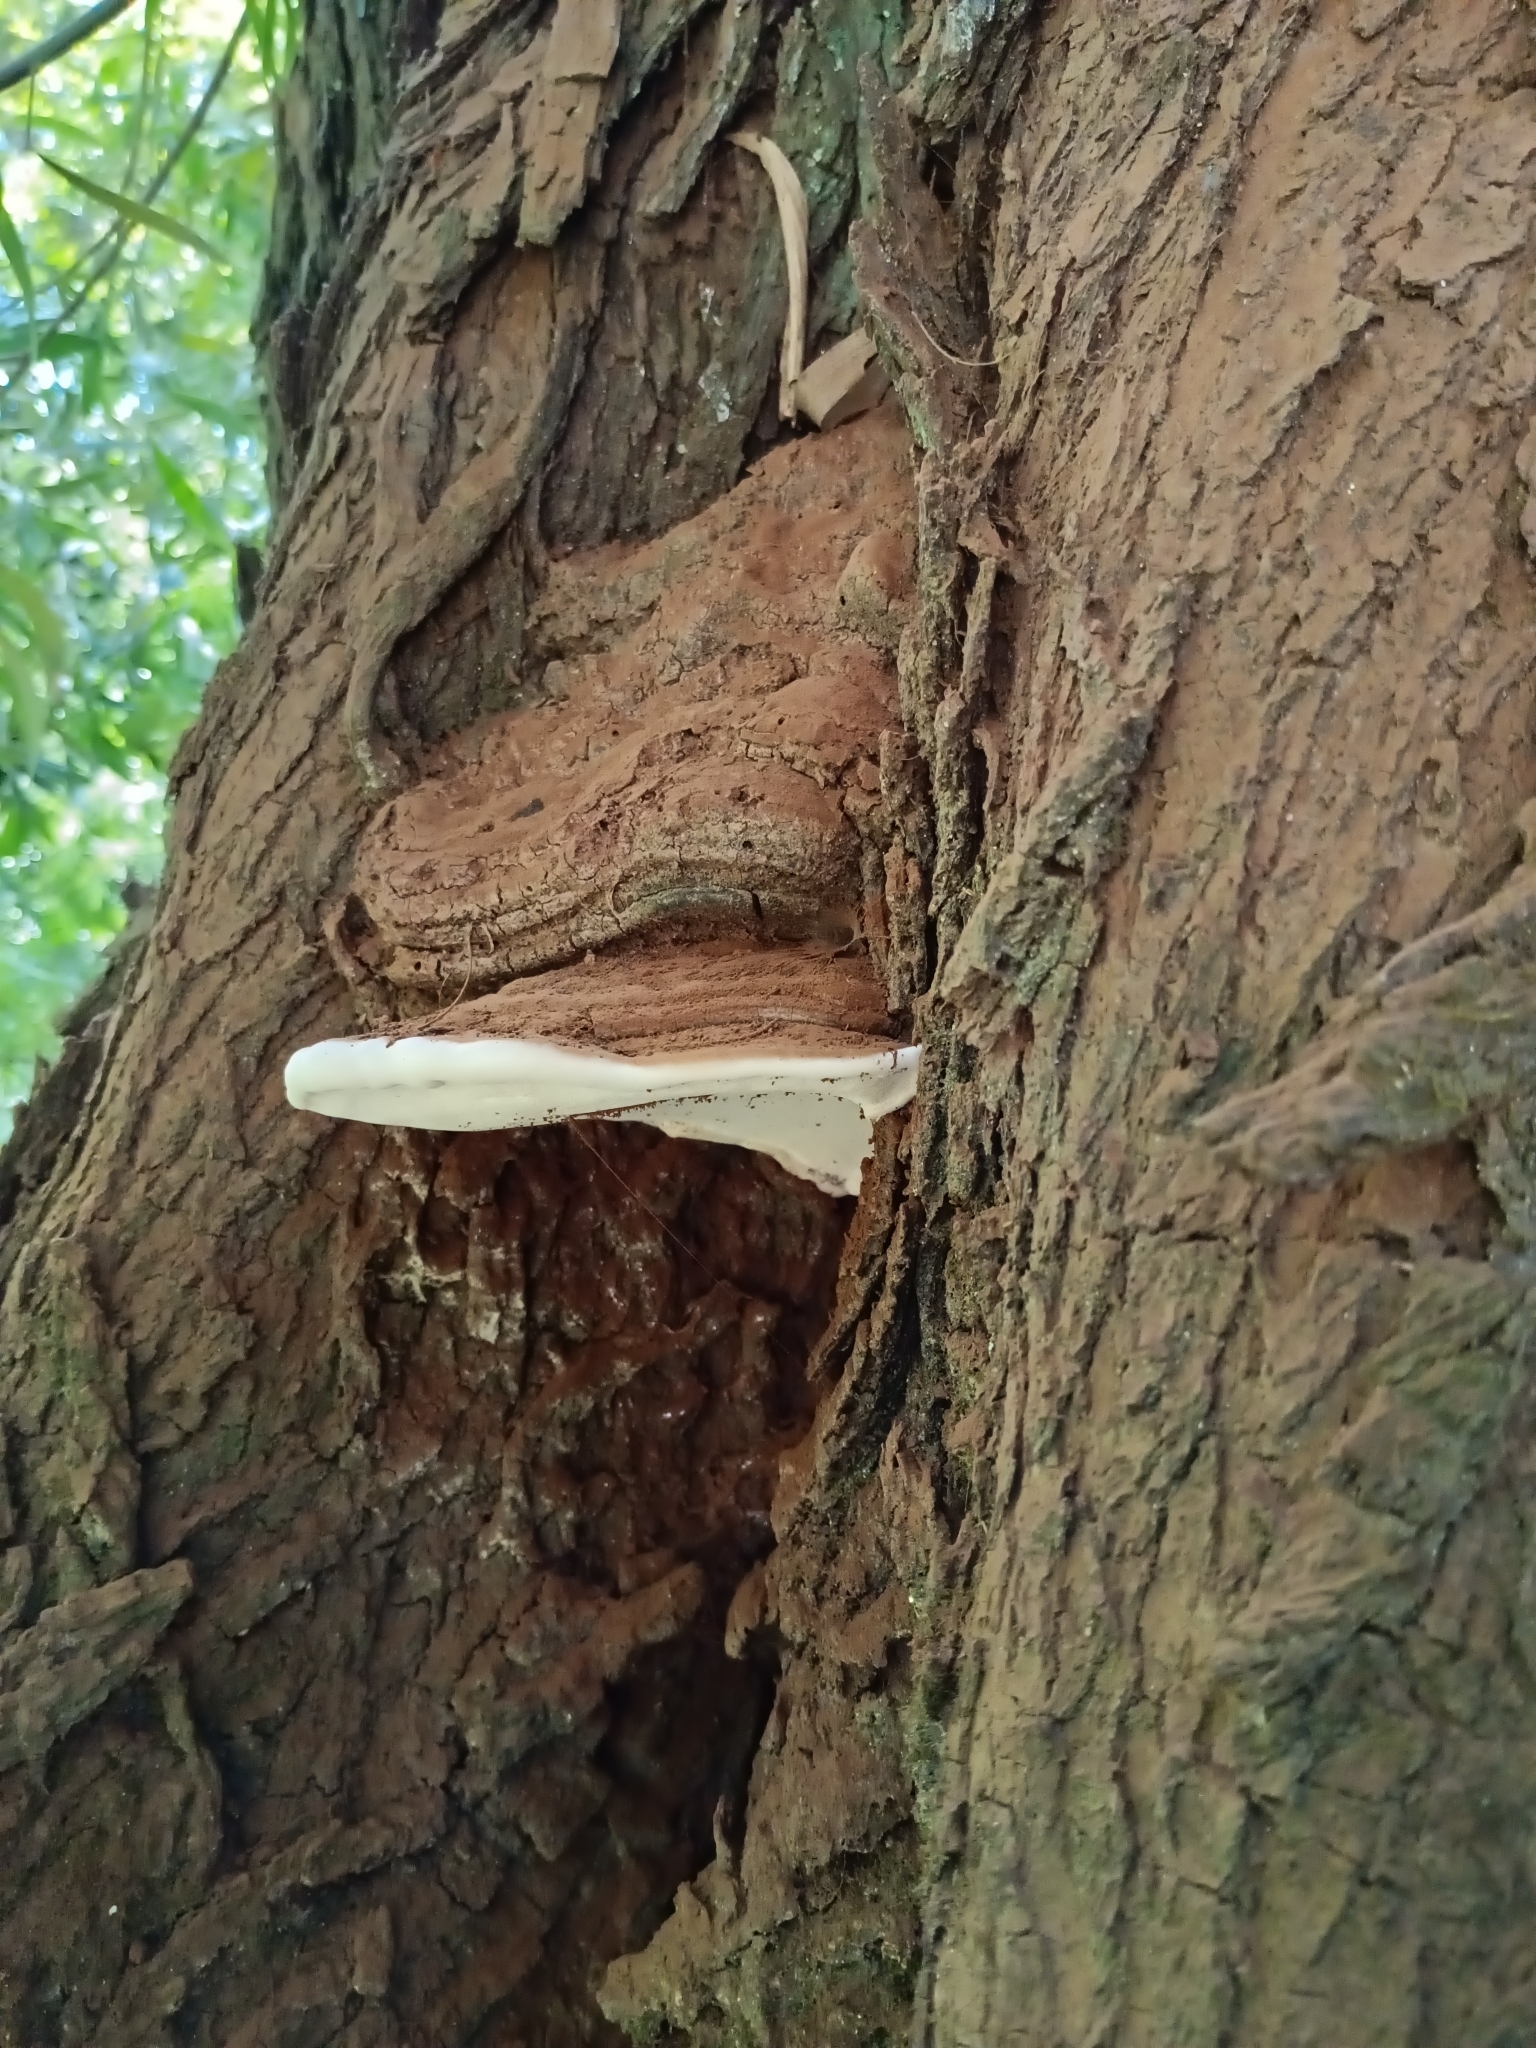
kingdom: Fungi
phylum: Basidiomycota
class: Agaricomycetes
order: Polyporales
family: Polyporaceae
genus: Ganoderma
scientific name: Ganoderma australe
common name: Southern bracket
